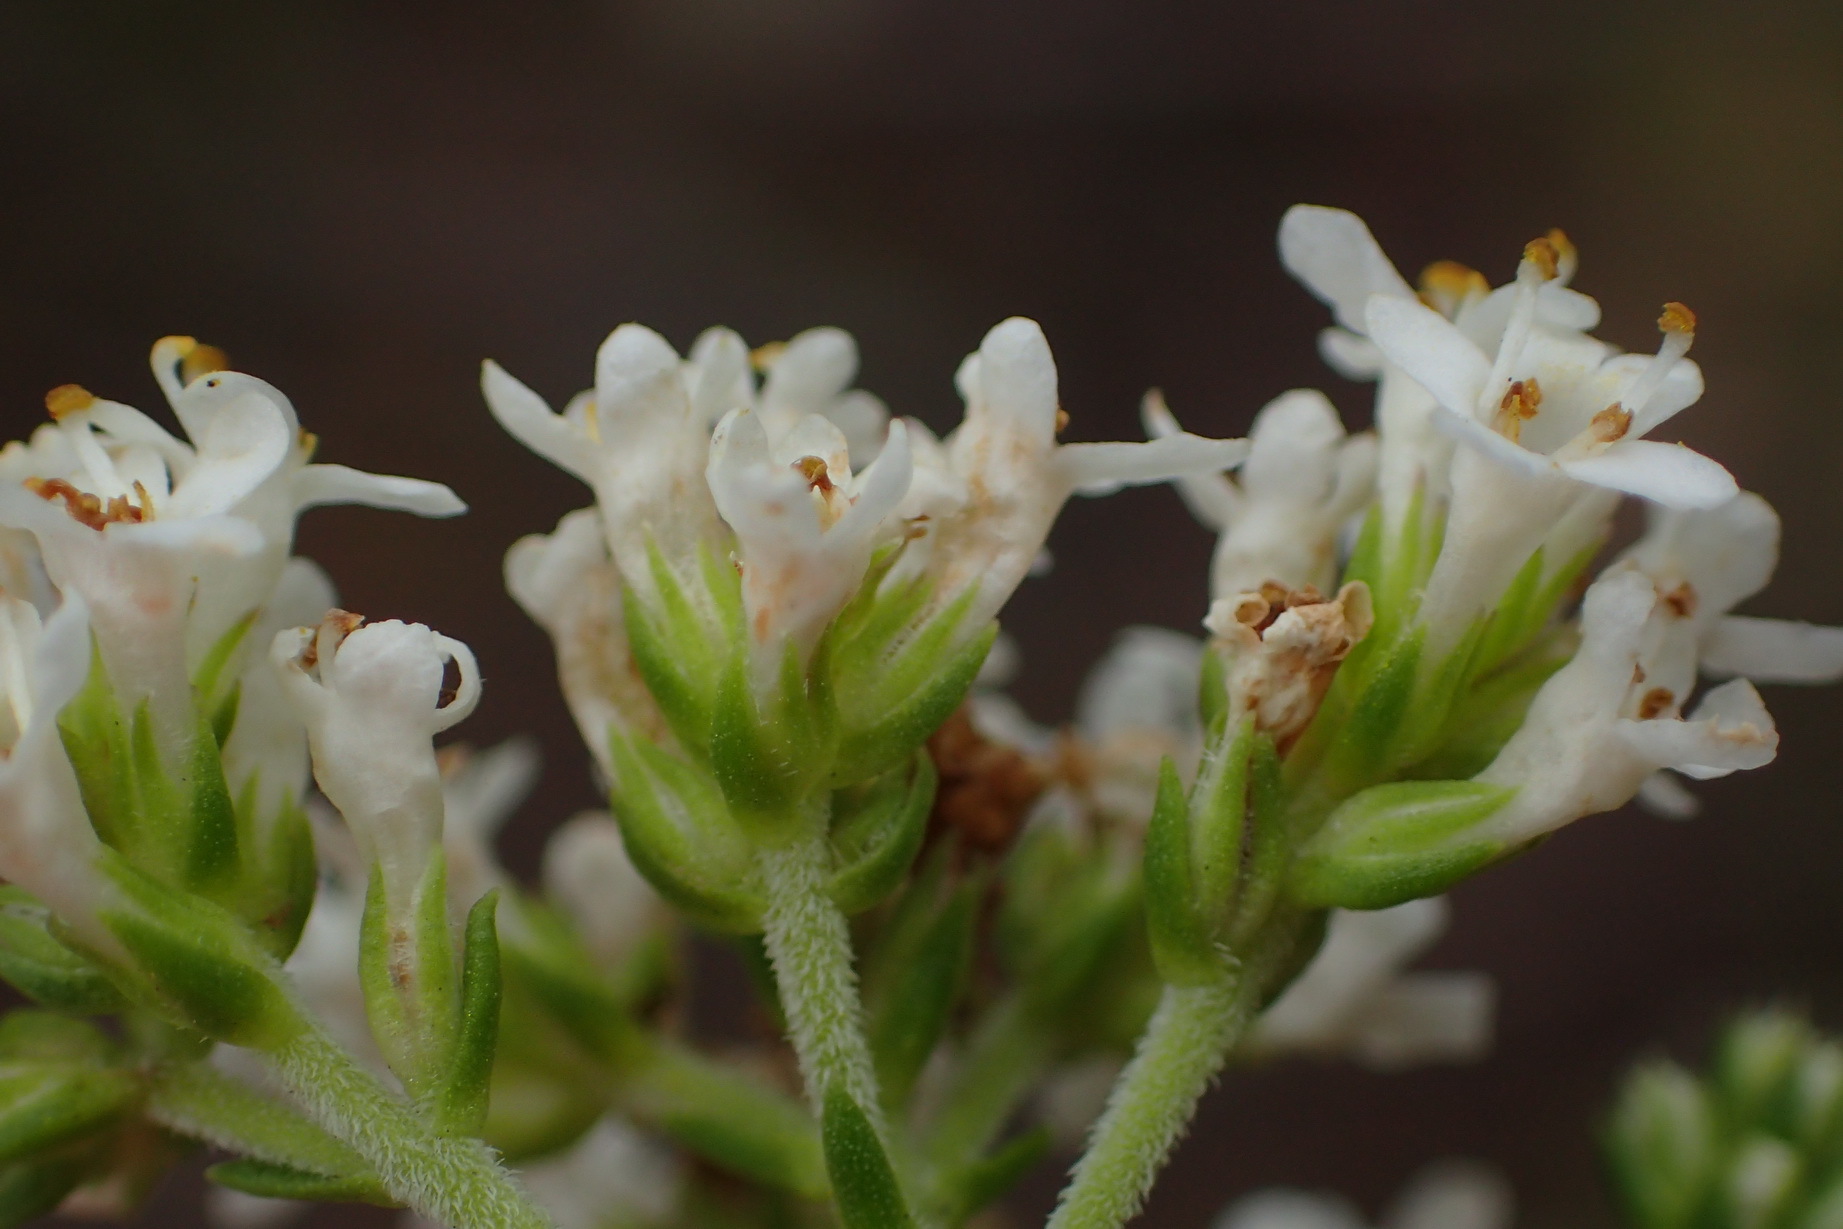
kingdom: Plantae
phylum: Tracheophyta
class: Magnoliopsida
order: Lamiales
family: Scrophulariaceae
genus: Selago
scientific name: Selago glomerata
